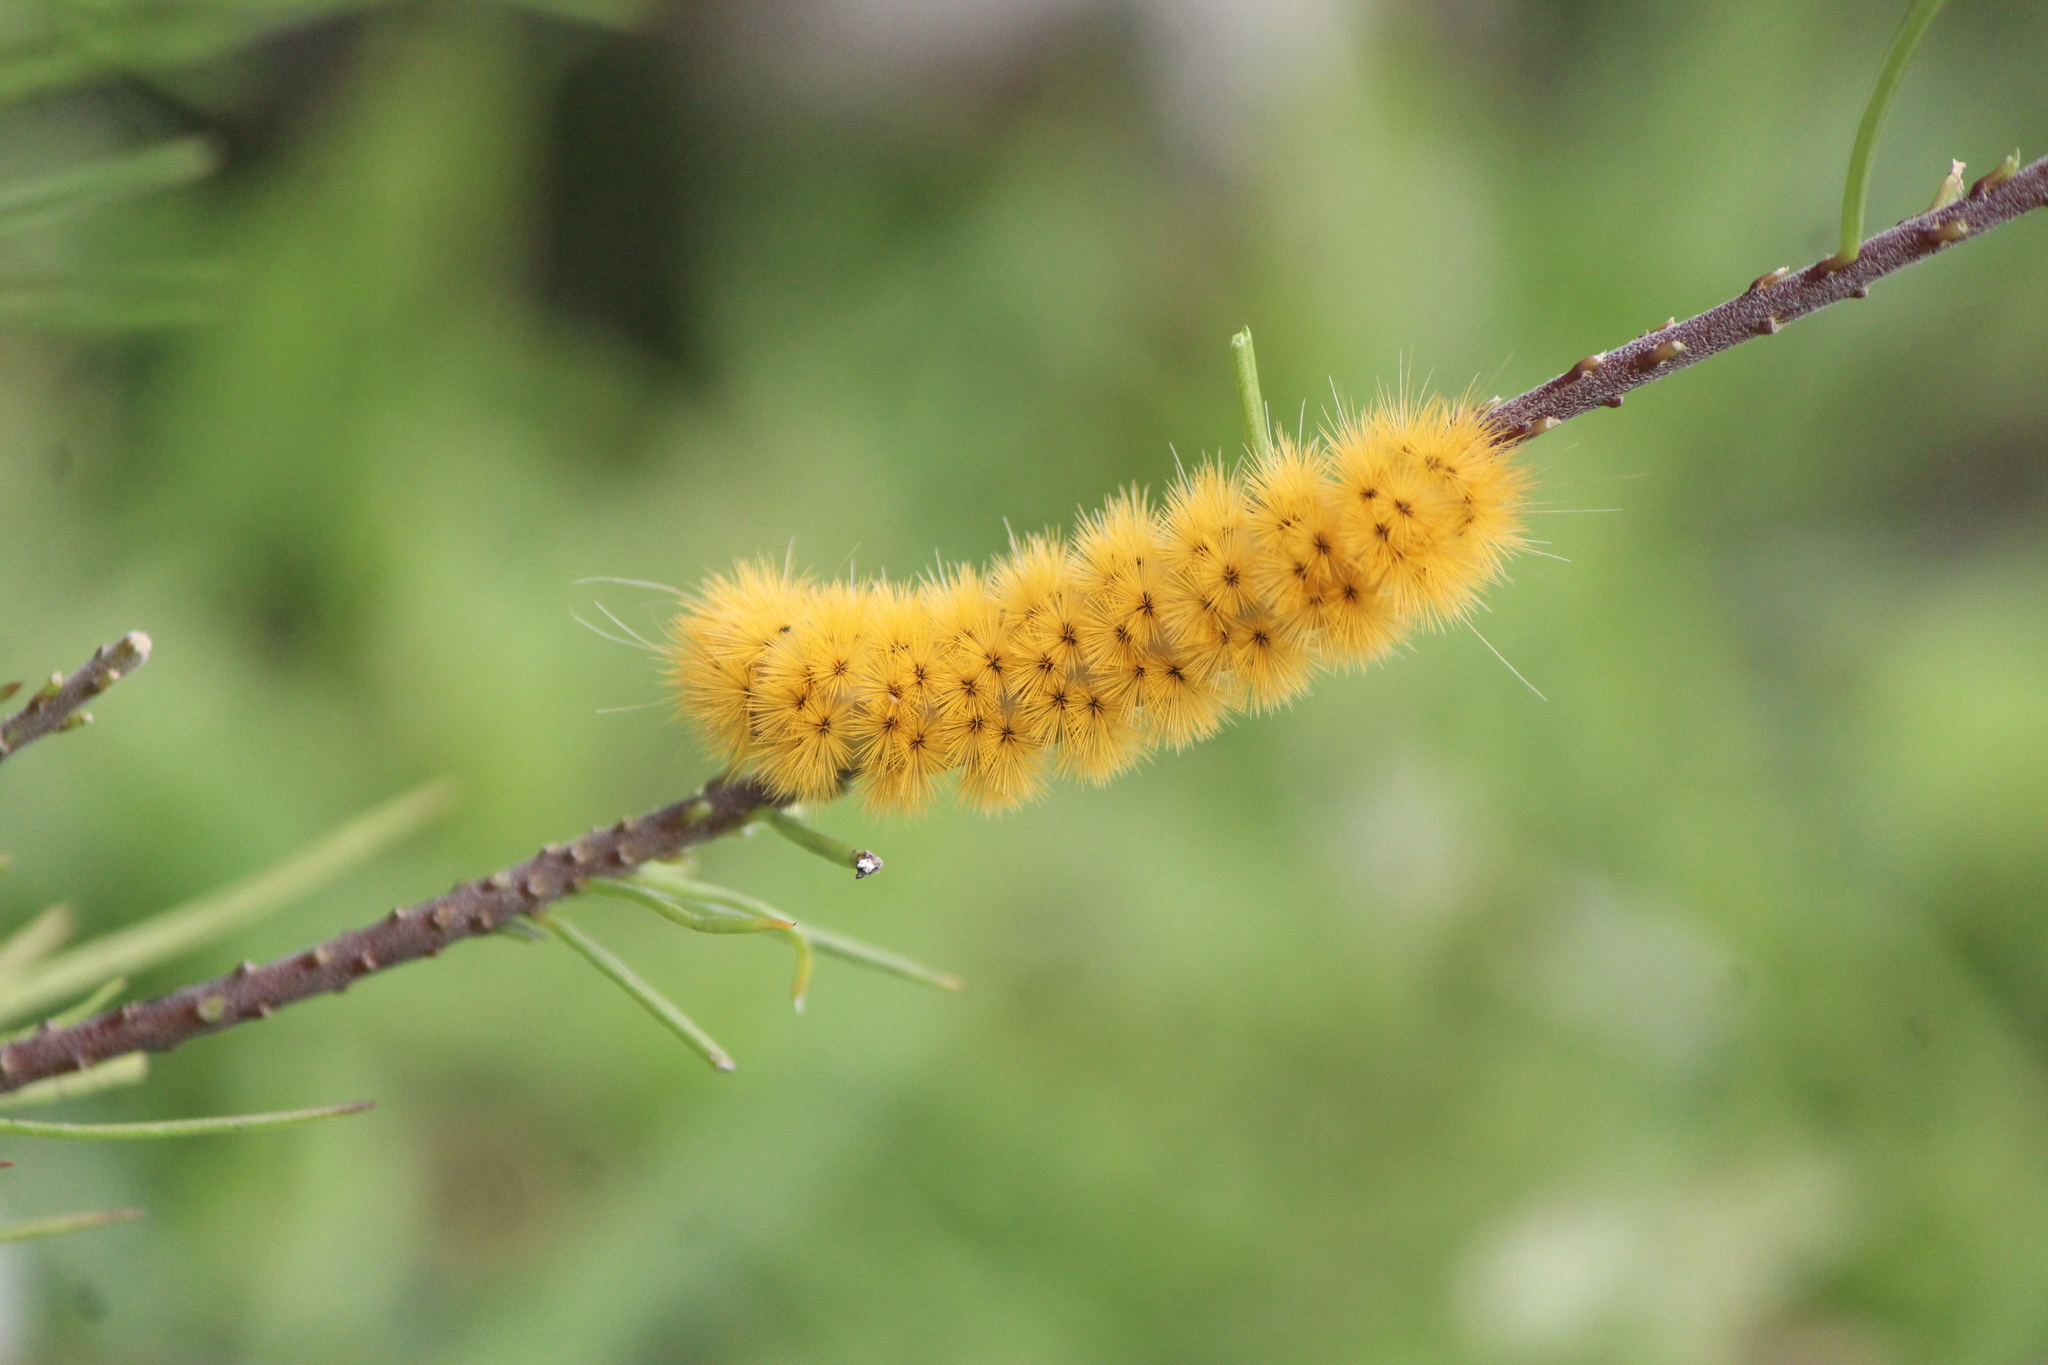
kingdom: Animalia
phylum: Arthropoda
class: Insecta
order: Lepidoptera
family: Erebidae
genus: Lerina
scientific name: Lerina incarnata
